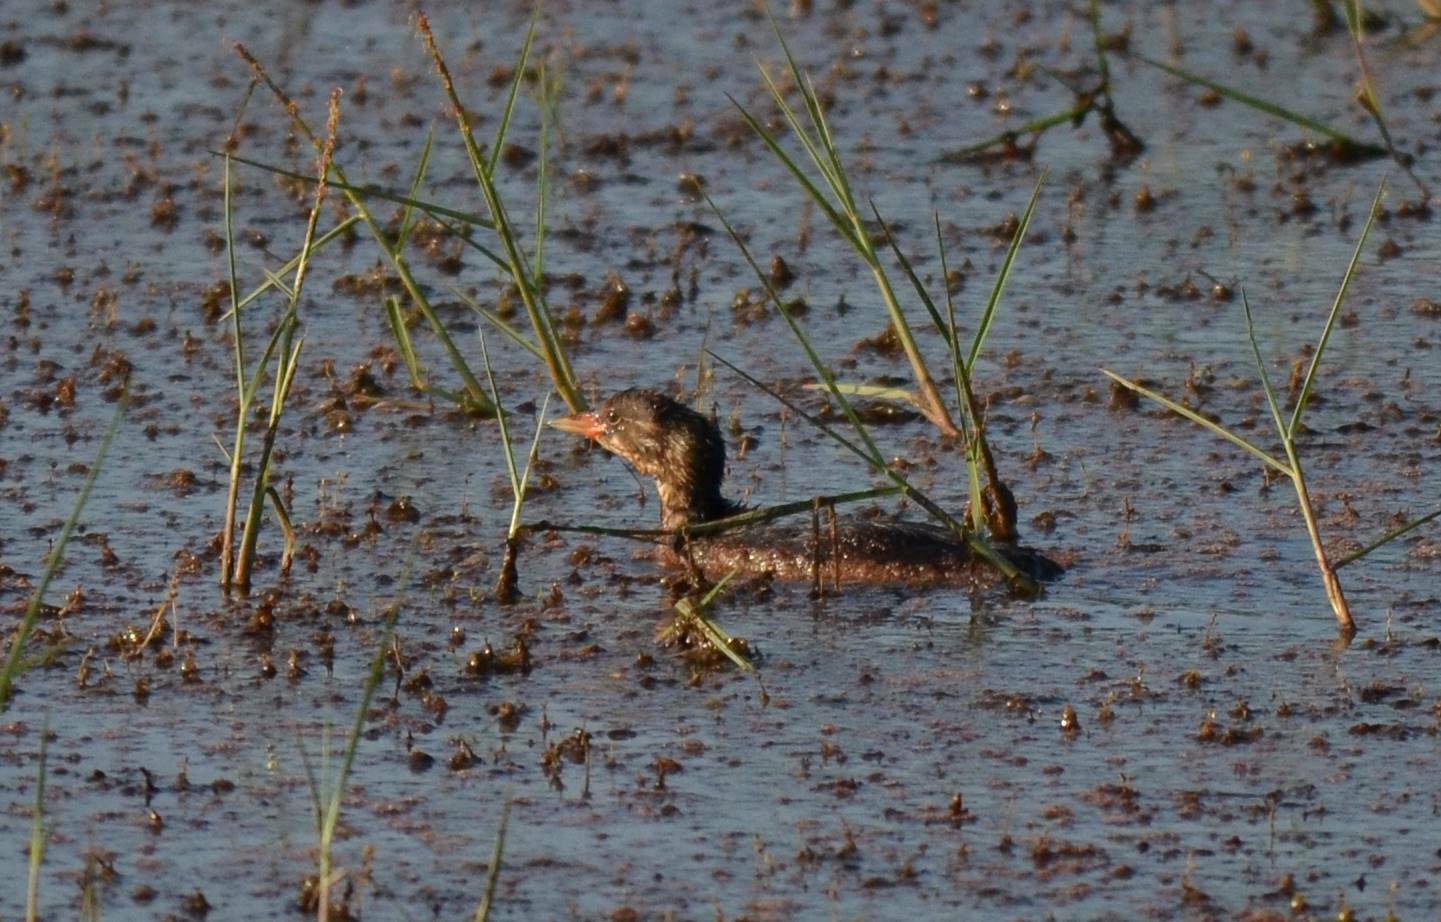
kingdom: Animalia
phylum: Chordata
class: Aves
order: Podicipediformes
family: Podicipedidae
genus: Tachybaptus
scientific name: Tachybaptus ruficollis
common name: Little grebe
